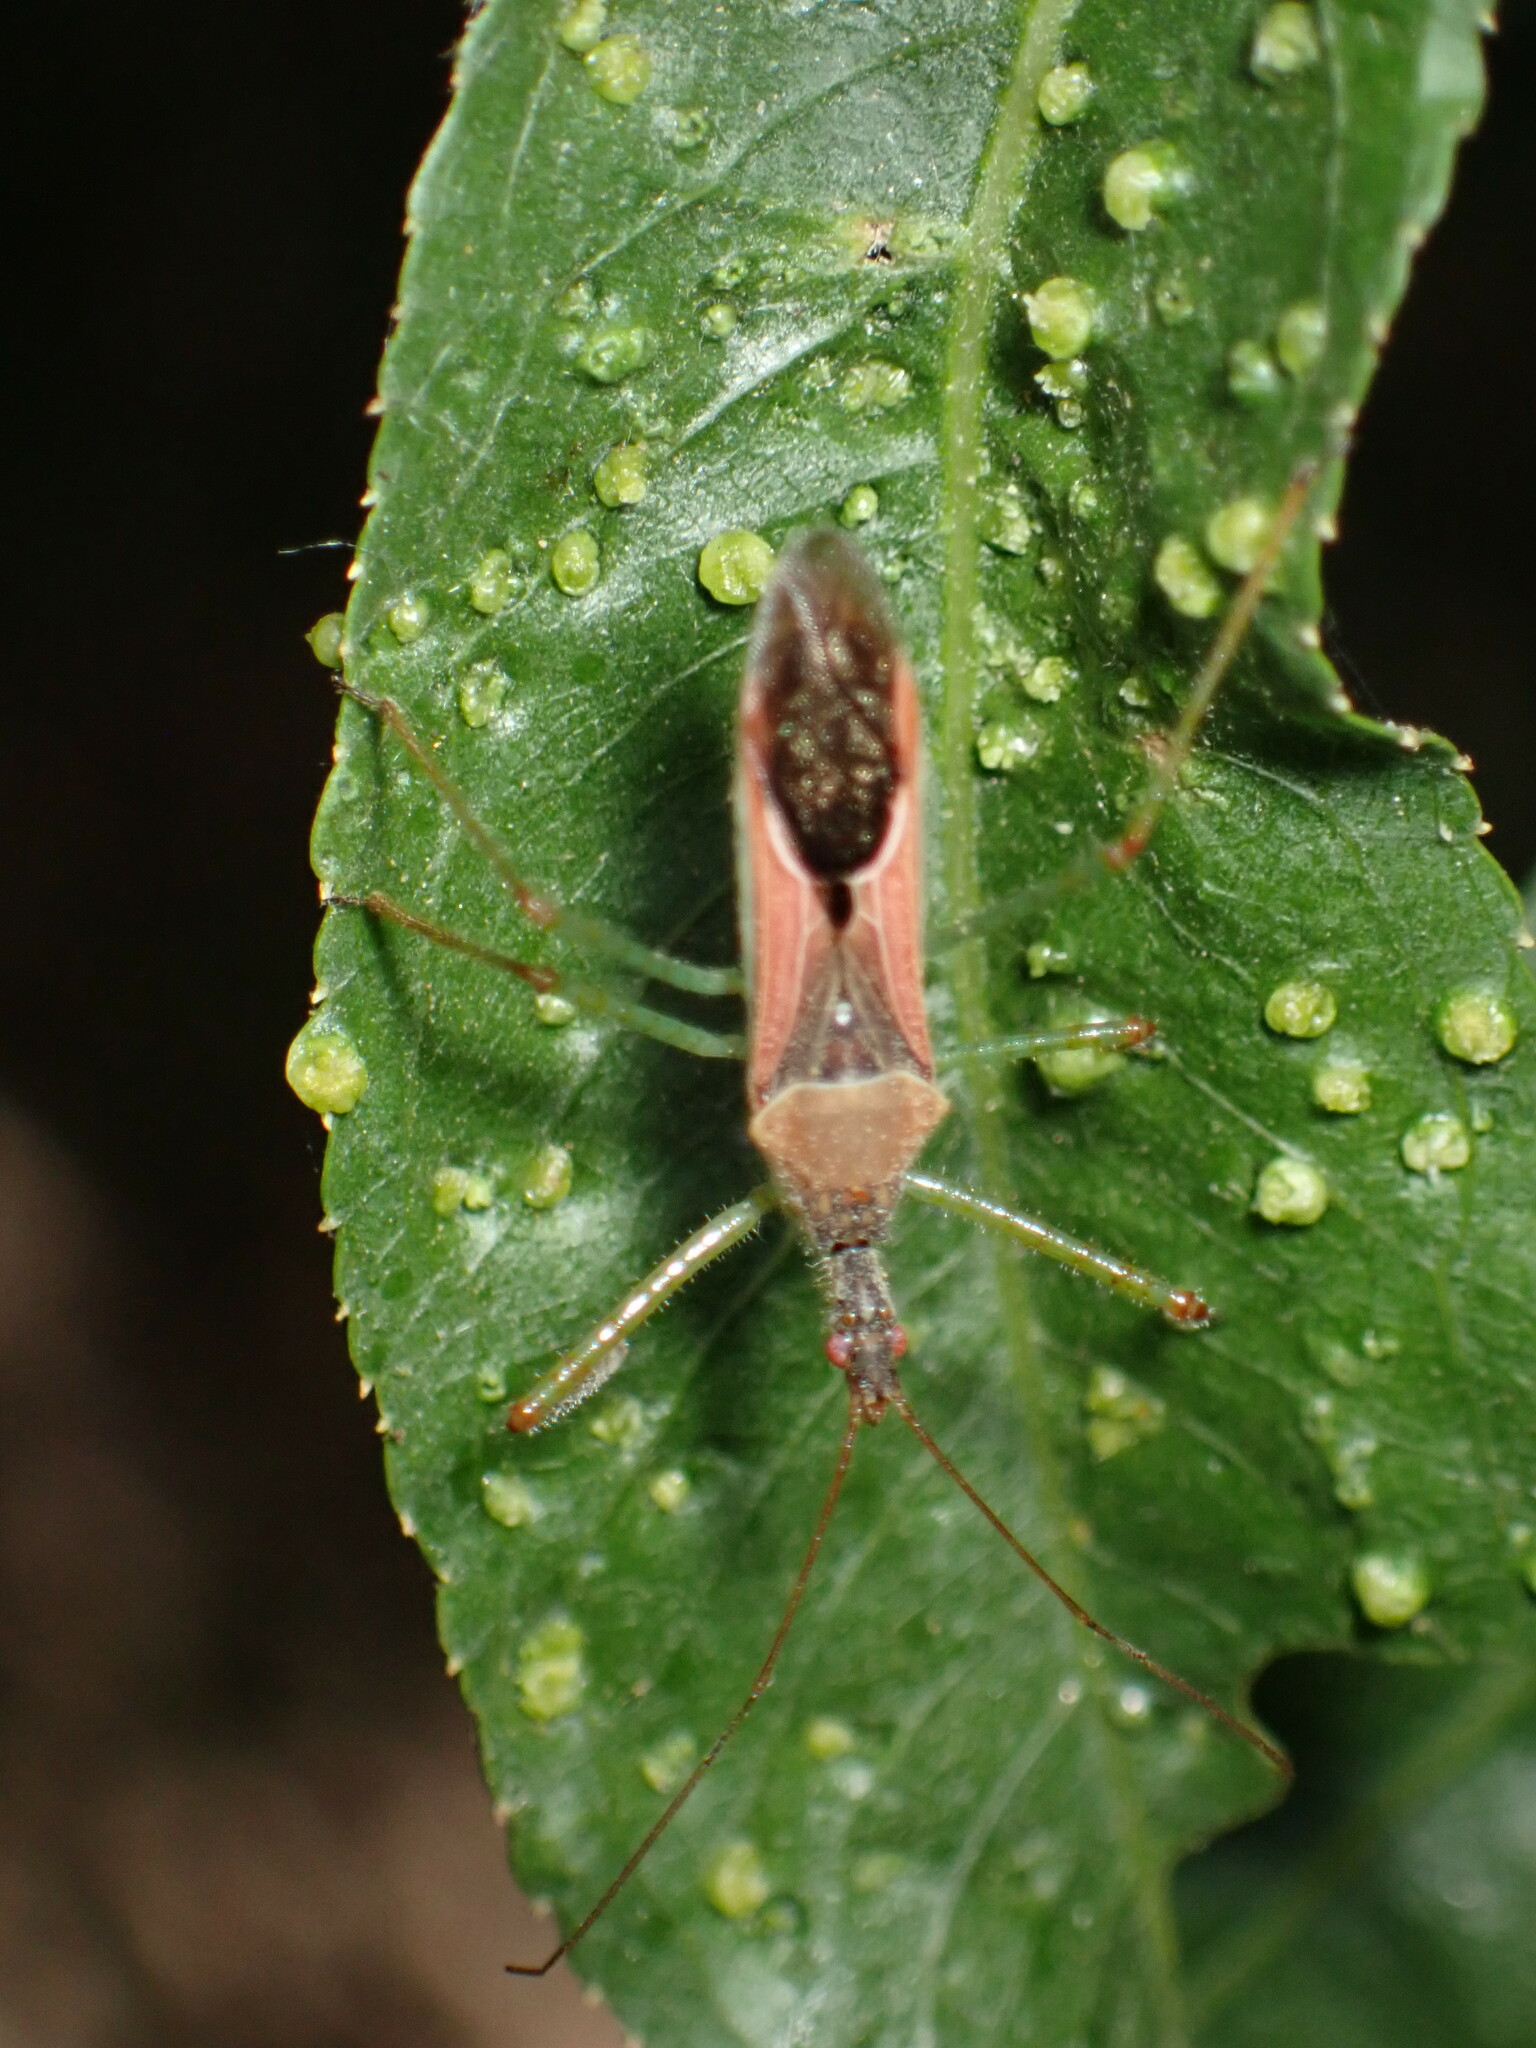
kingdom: Animalia
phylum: Arthropoda
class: Insecta
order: Hemiptera
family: Reduviidae
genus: Zelus
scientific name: Zelus renardii
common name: Assassin bug
